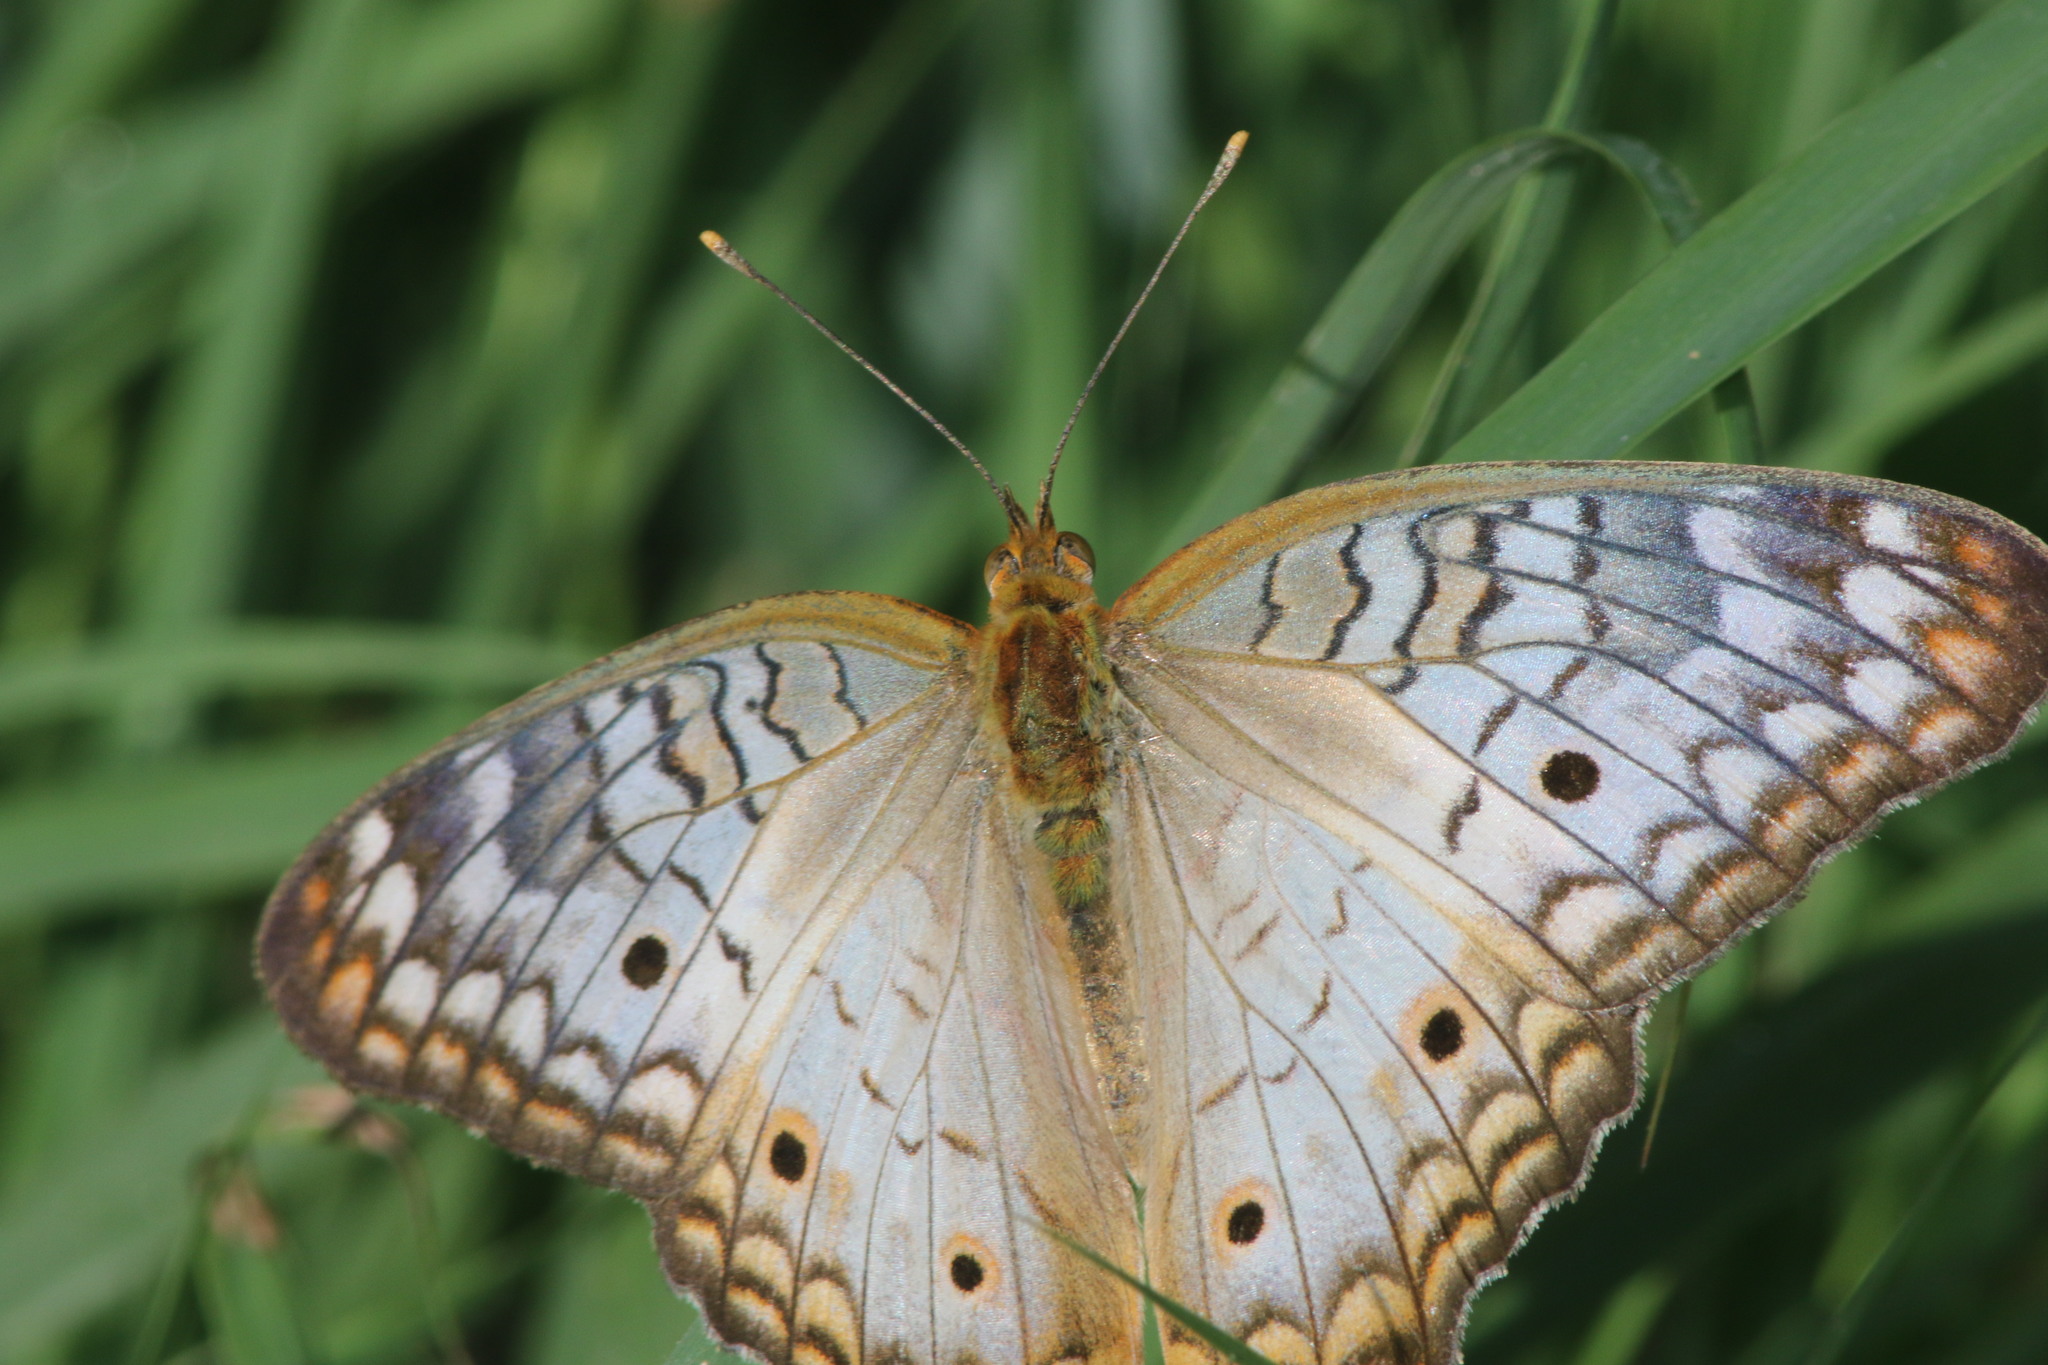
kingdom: Animalia
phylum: Arthropoda
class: Insecta
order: Lepidoptera
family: Nymphalidae
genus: Anartia
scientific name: Anartia jatrophae
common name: White peacock
